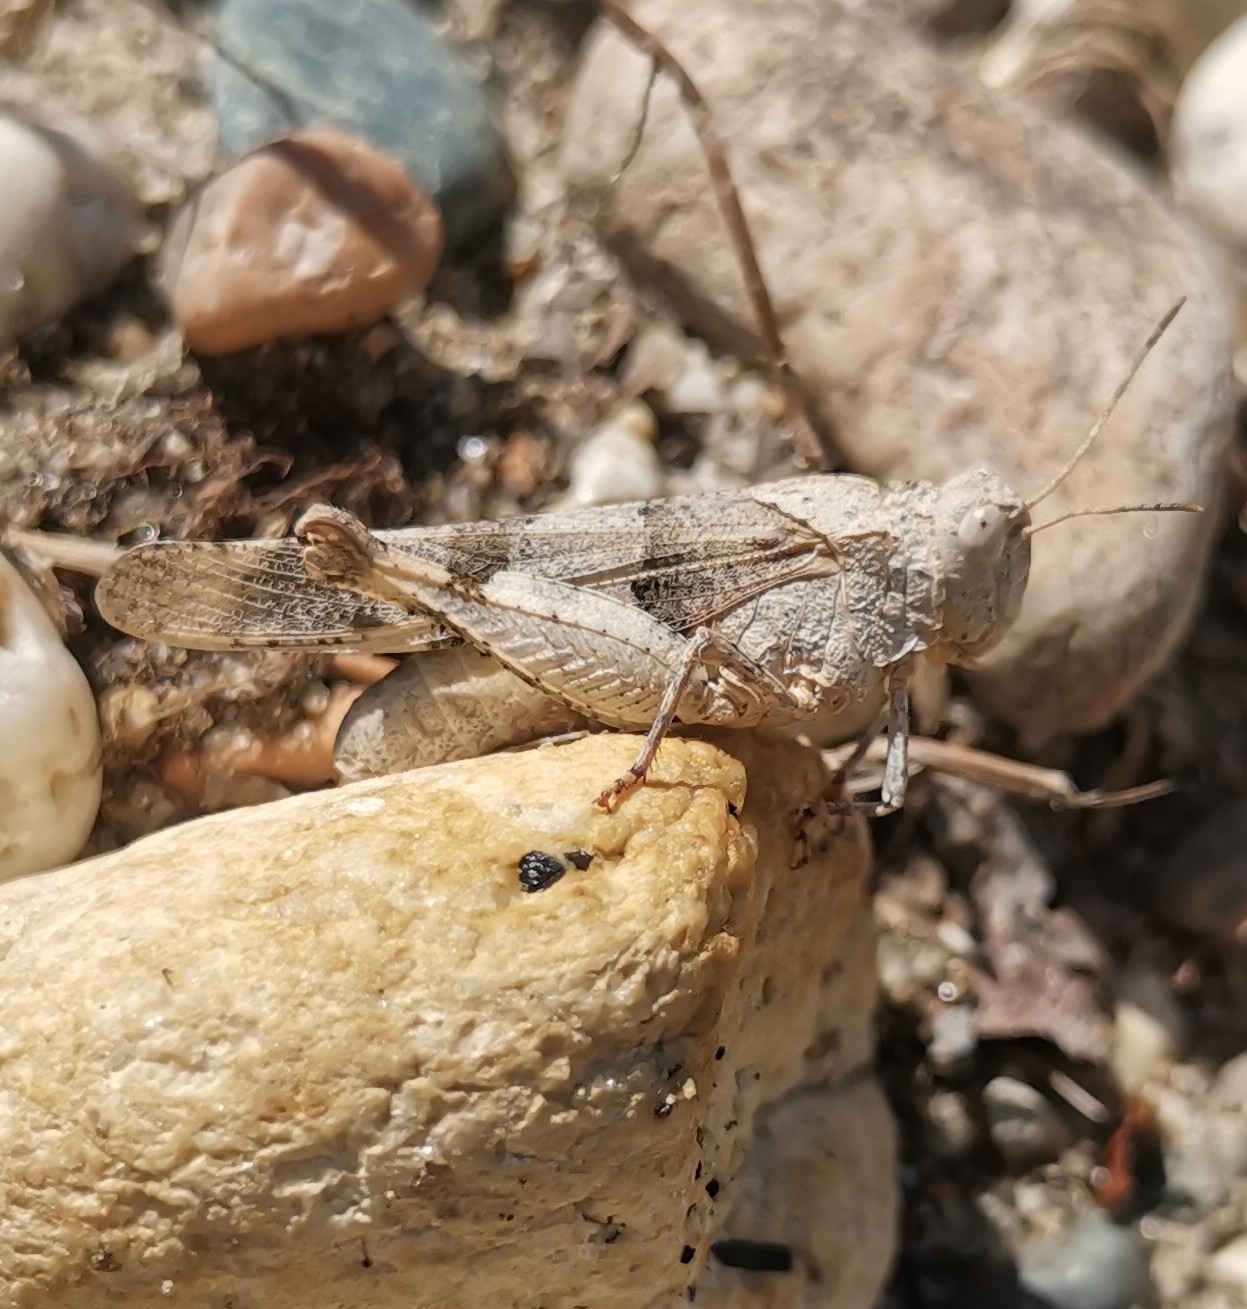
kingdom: Animalia
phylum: Arthropoda
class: Insecta
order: Orthoptera
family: Acrididae
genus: Oedipoda
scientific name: Oedipoda caerulescens
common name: Blue-winged grasshopper
